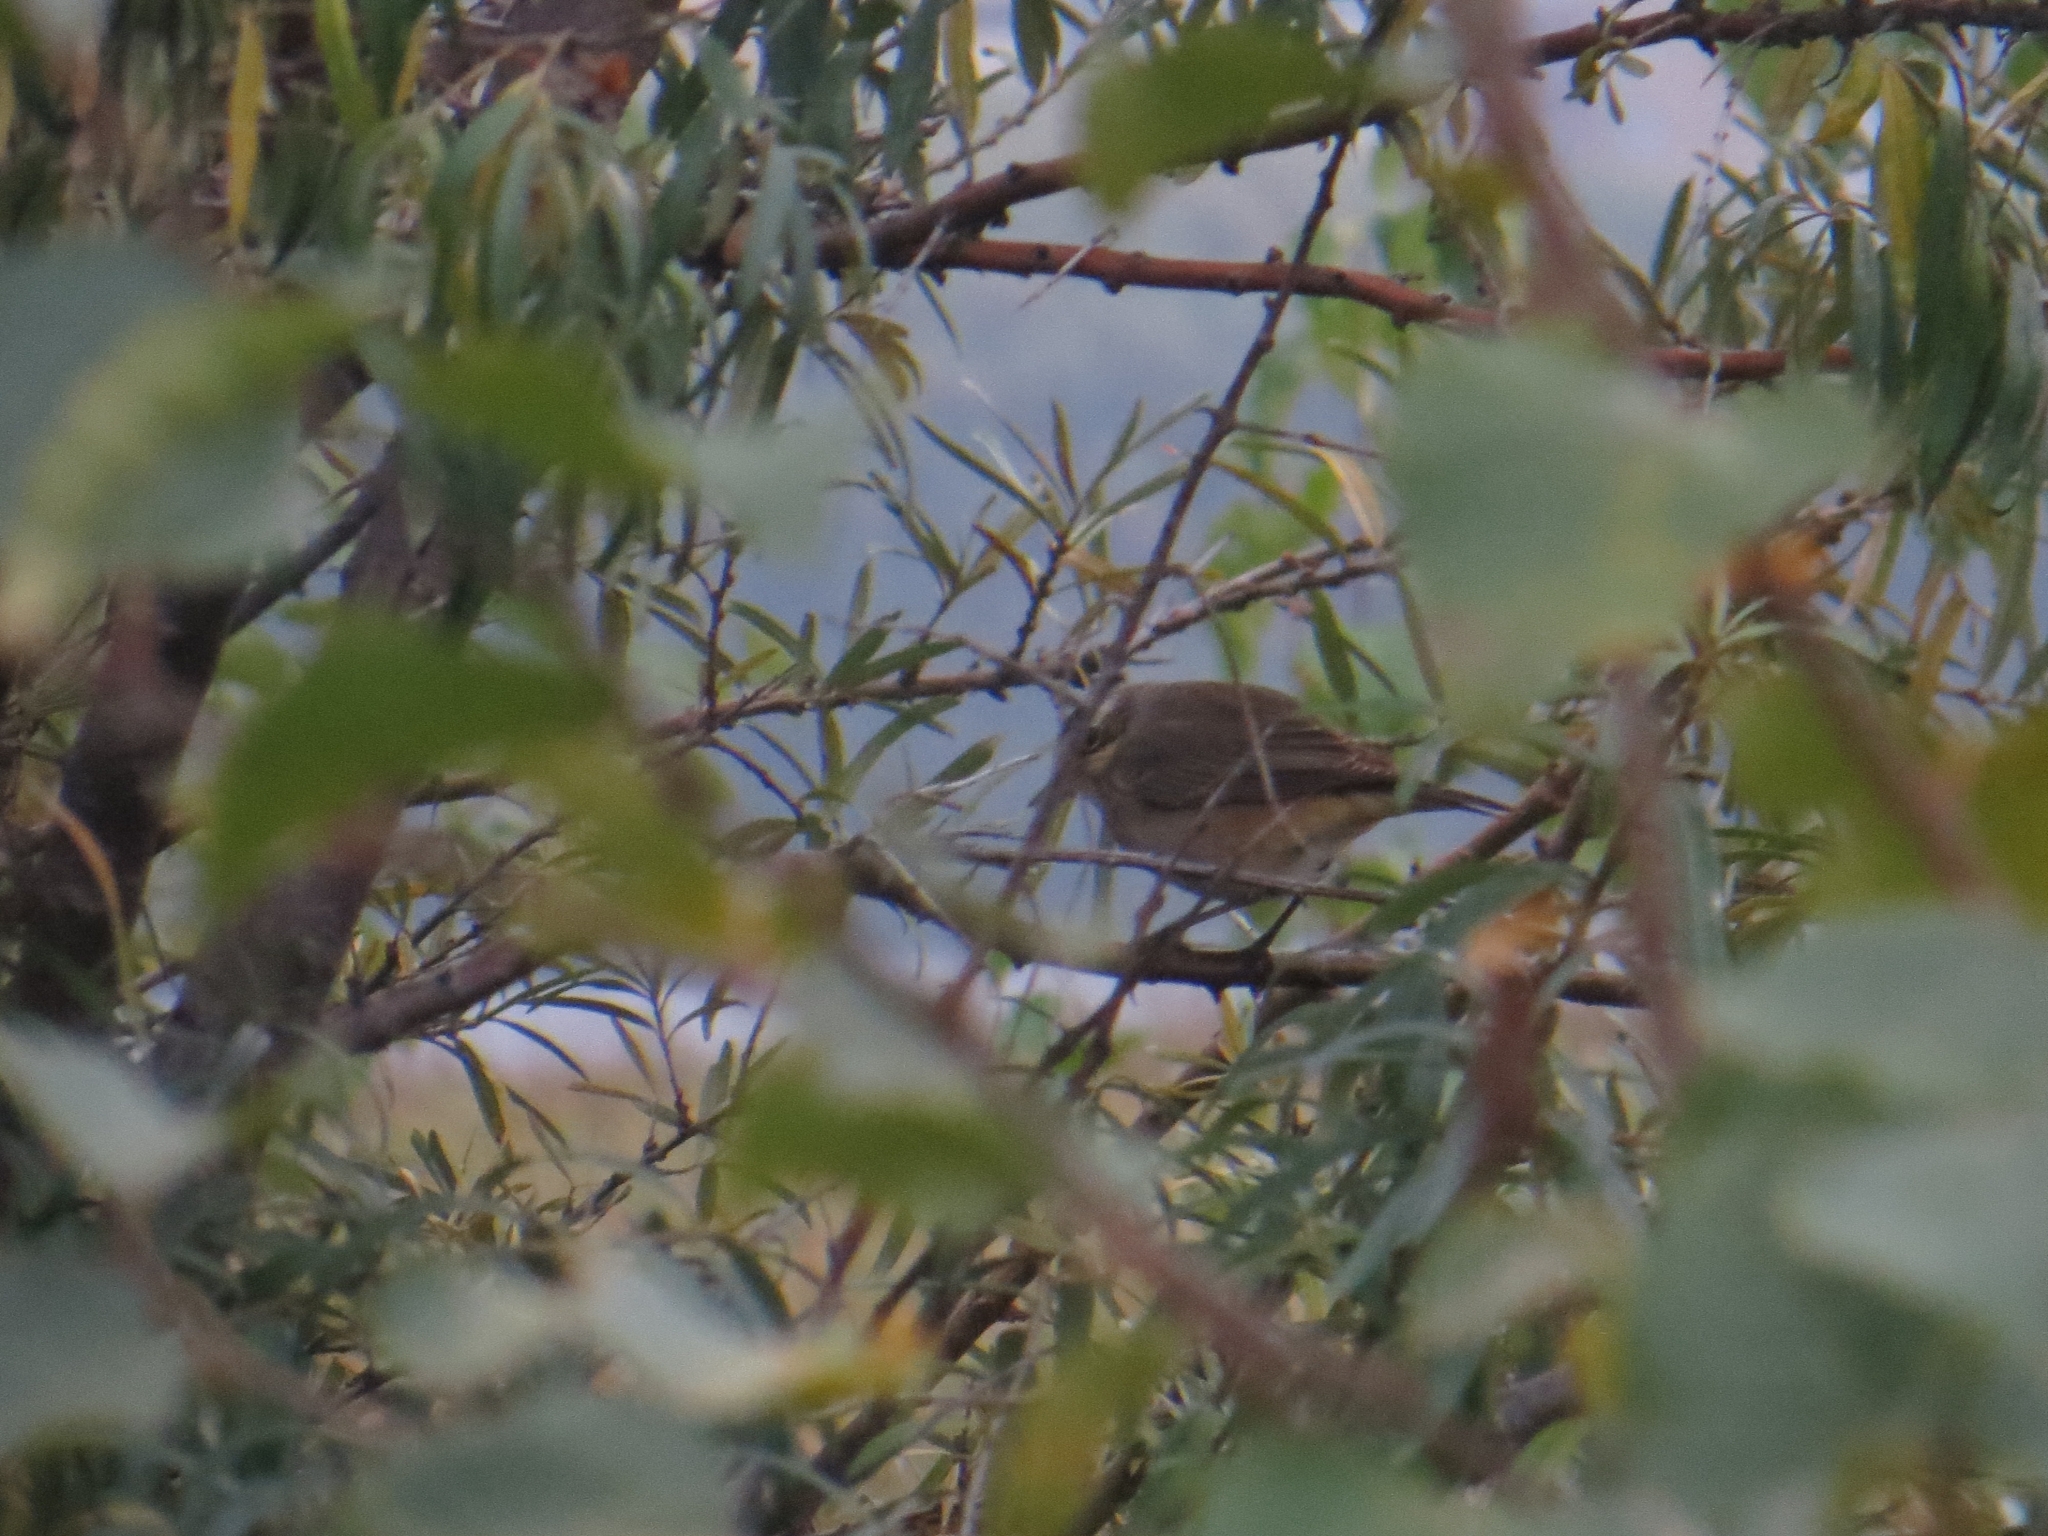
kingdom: Animalia
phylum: Chordata
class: Aves
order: Passeriformes
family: Muscicapidae
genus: Luscinia
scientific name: Luscinia svecica
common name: Bluethroat
